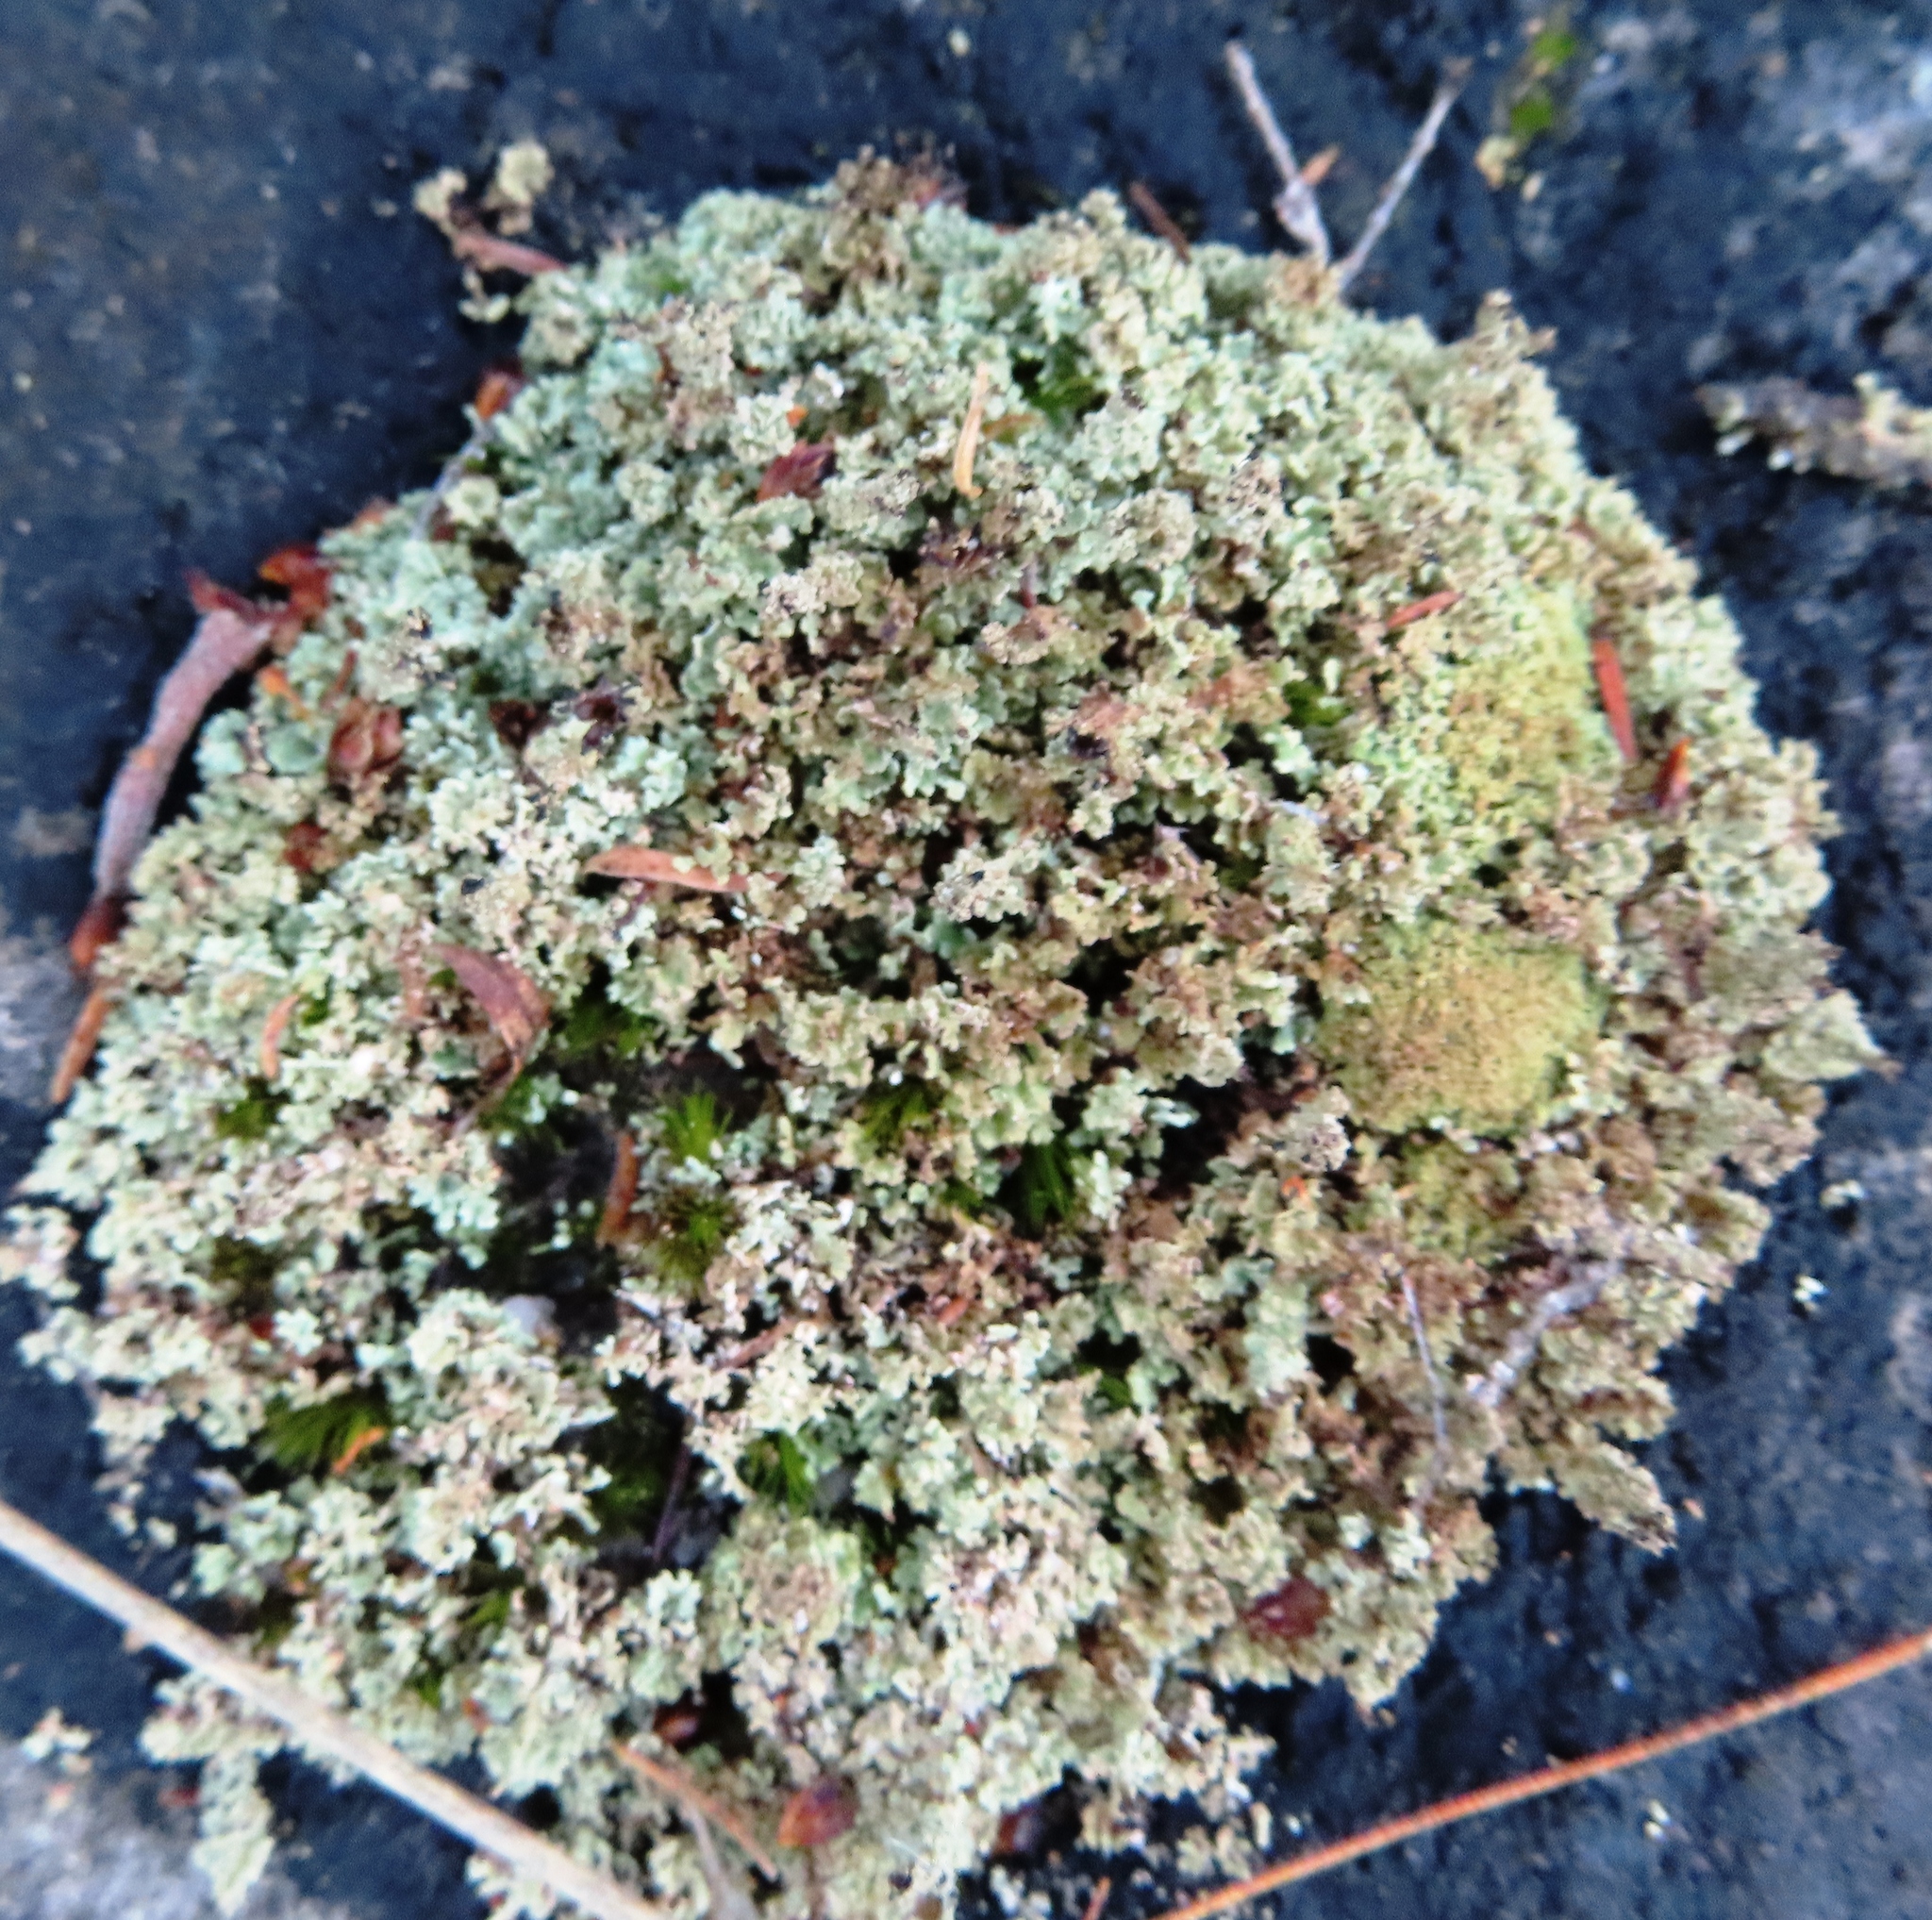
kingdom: Fungi
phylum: Ascomycota
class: Lecanoromycetes
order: Lecanorales
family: Cladoniaceae
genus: Cladonia
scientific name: Cladonia
